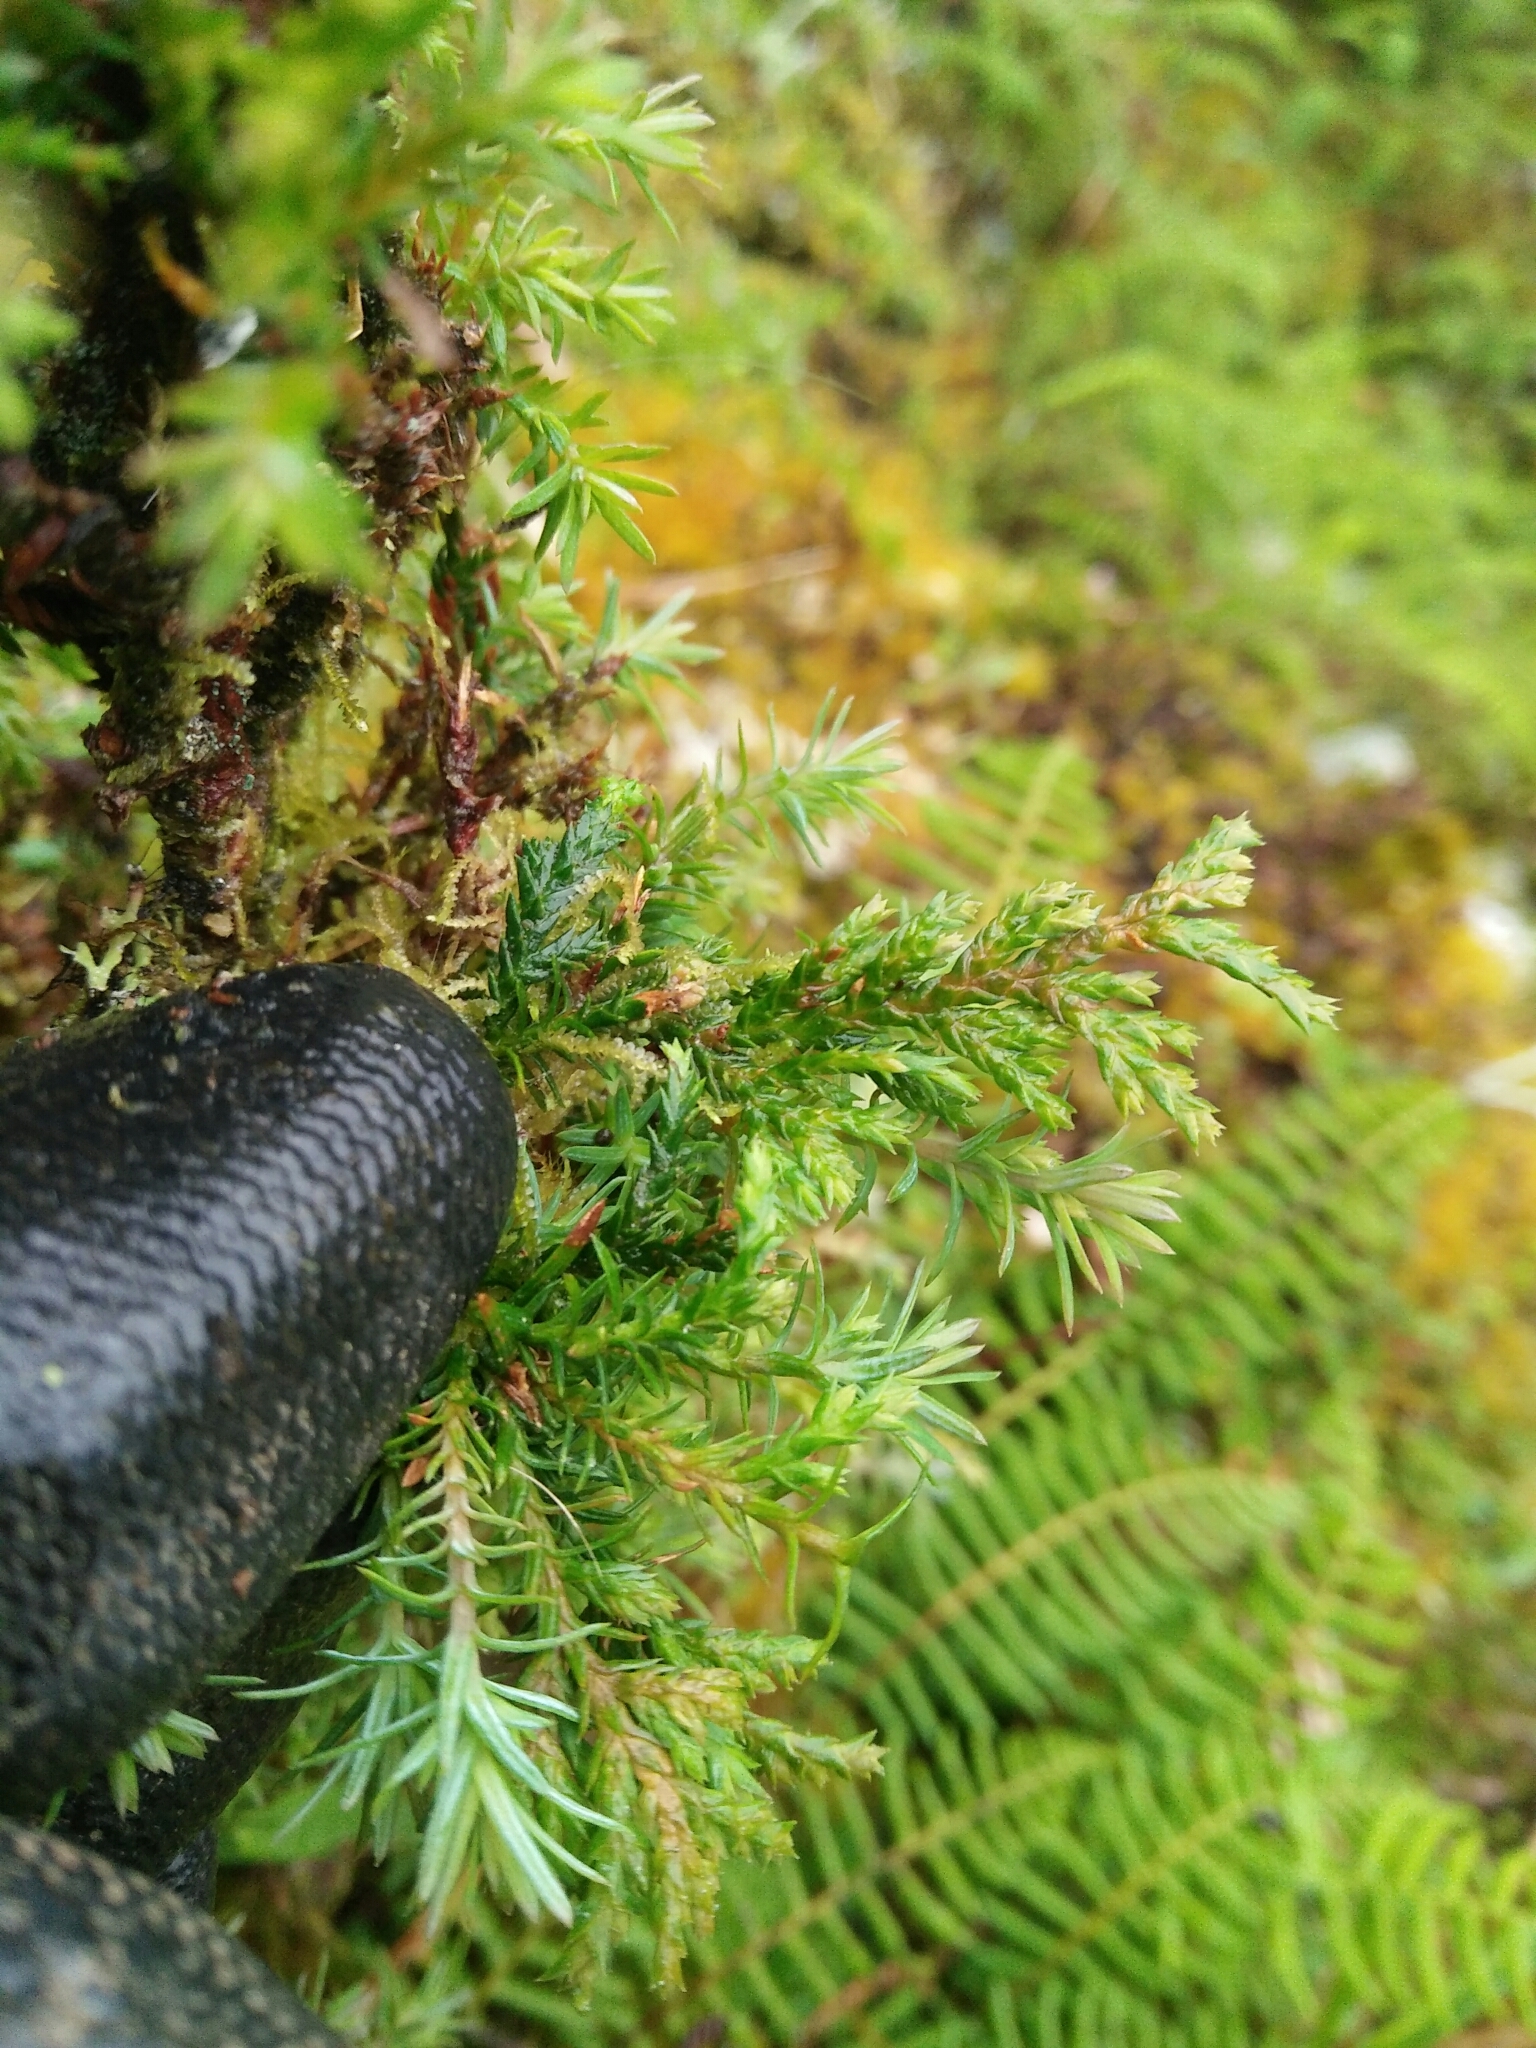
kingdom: Plantae
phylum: Tracheophyta
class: Pinopsida
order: Pinales
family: Cupressaceae
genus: Chamaecyparis
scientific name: Chamaecyparis formosensis
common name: Formosan cypress
